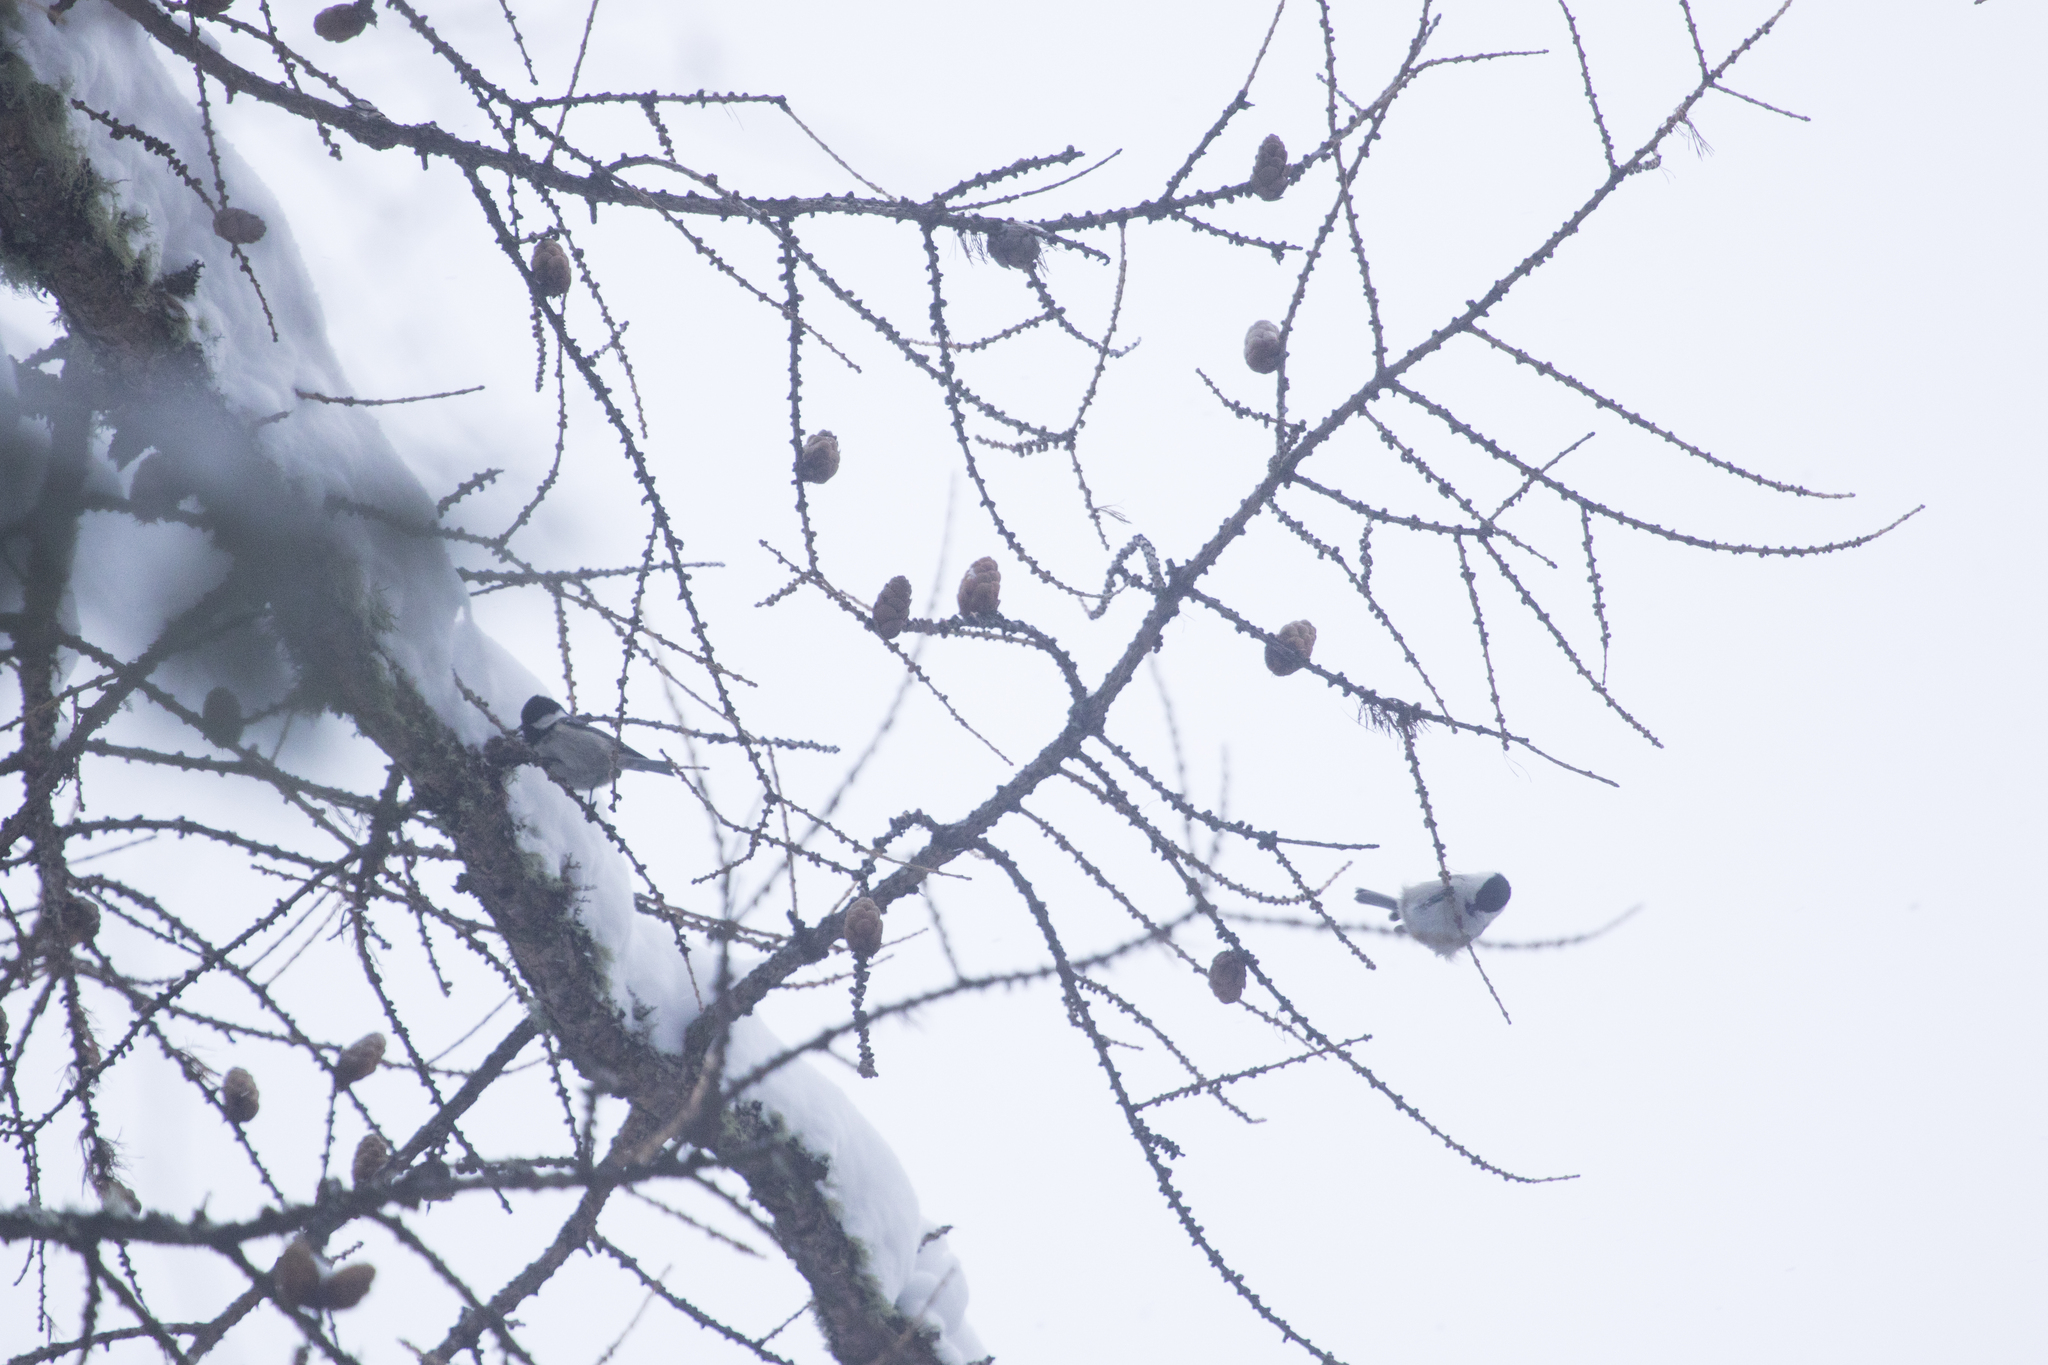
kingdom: Animalia
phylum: Chordata
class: Aves
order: Passeriformes
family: Paridae
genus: Periparus
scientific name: Periparus ater
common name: Coal tit
